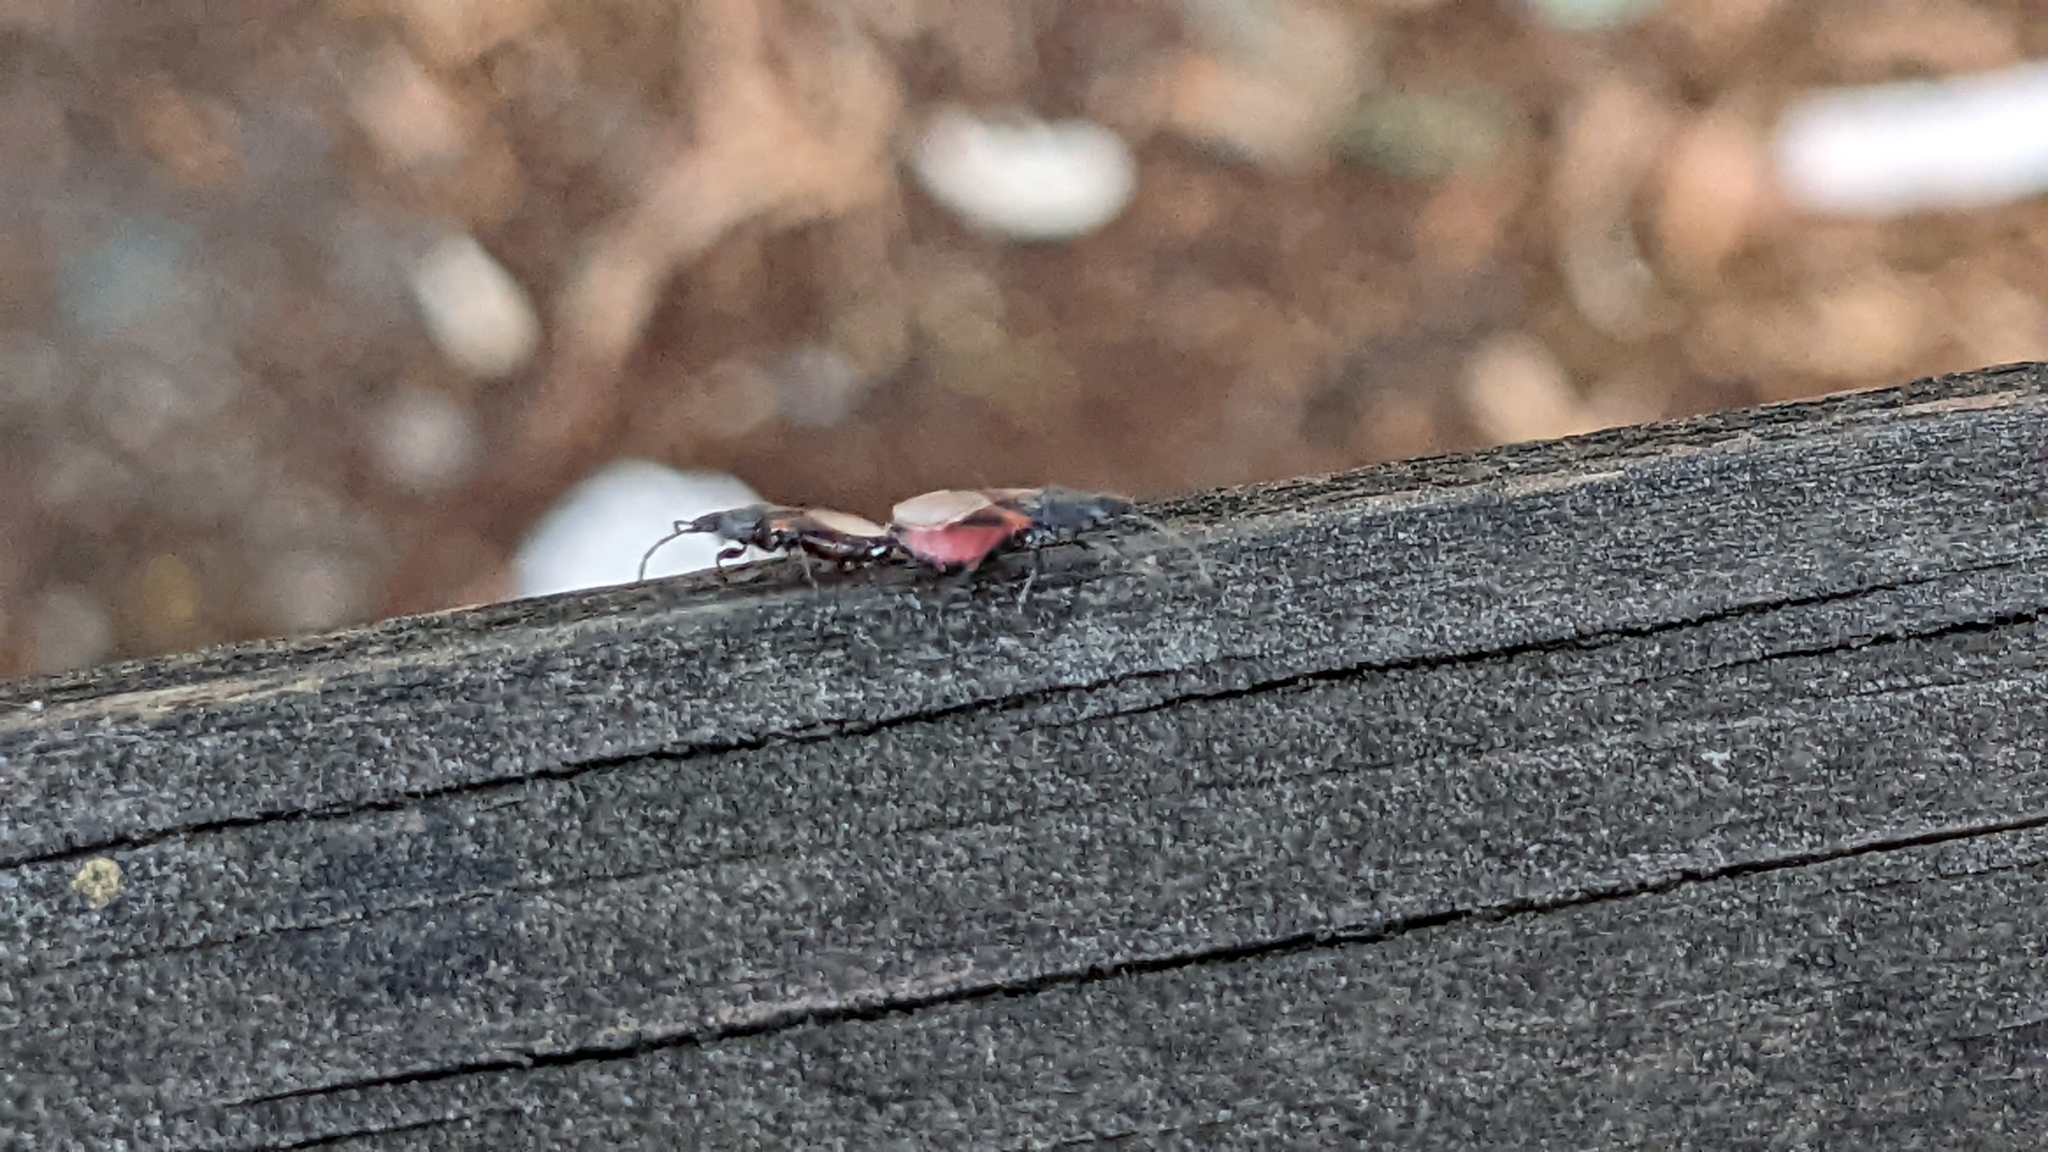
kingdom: Animalia
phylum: Arthropoda
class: Insecta
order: Hemiptera
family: Oxycarenidae
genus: Oxycarenus
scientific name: Oxycarenus lavaterae
